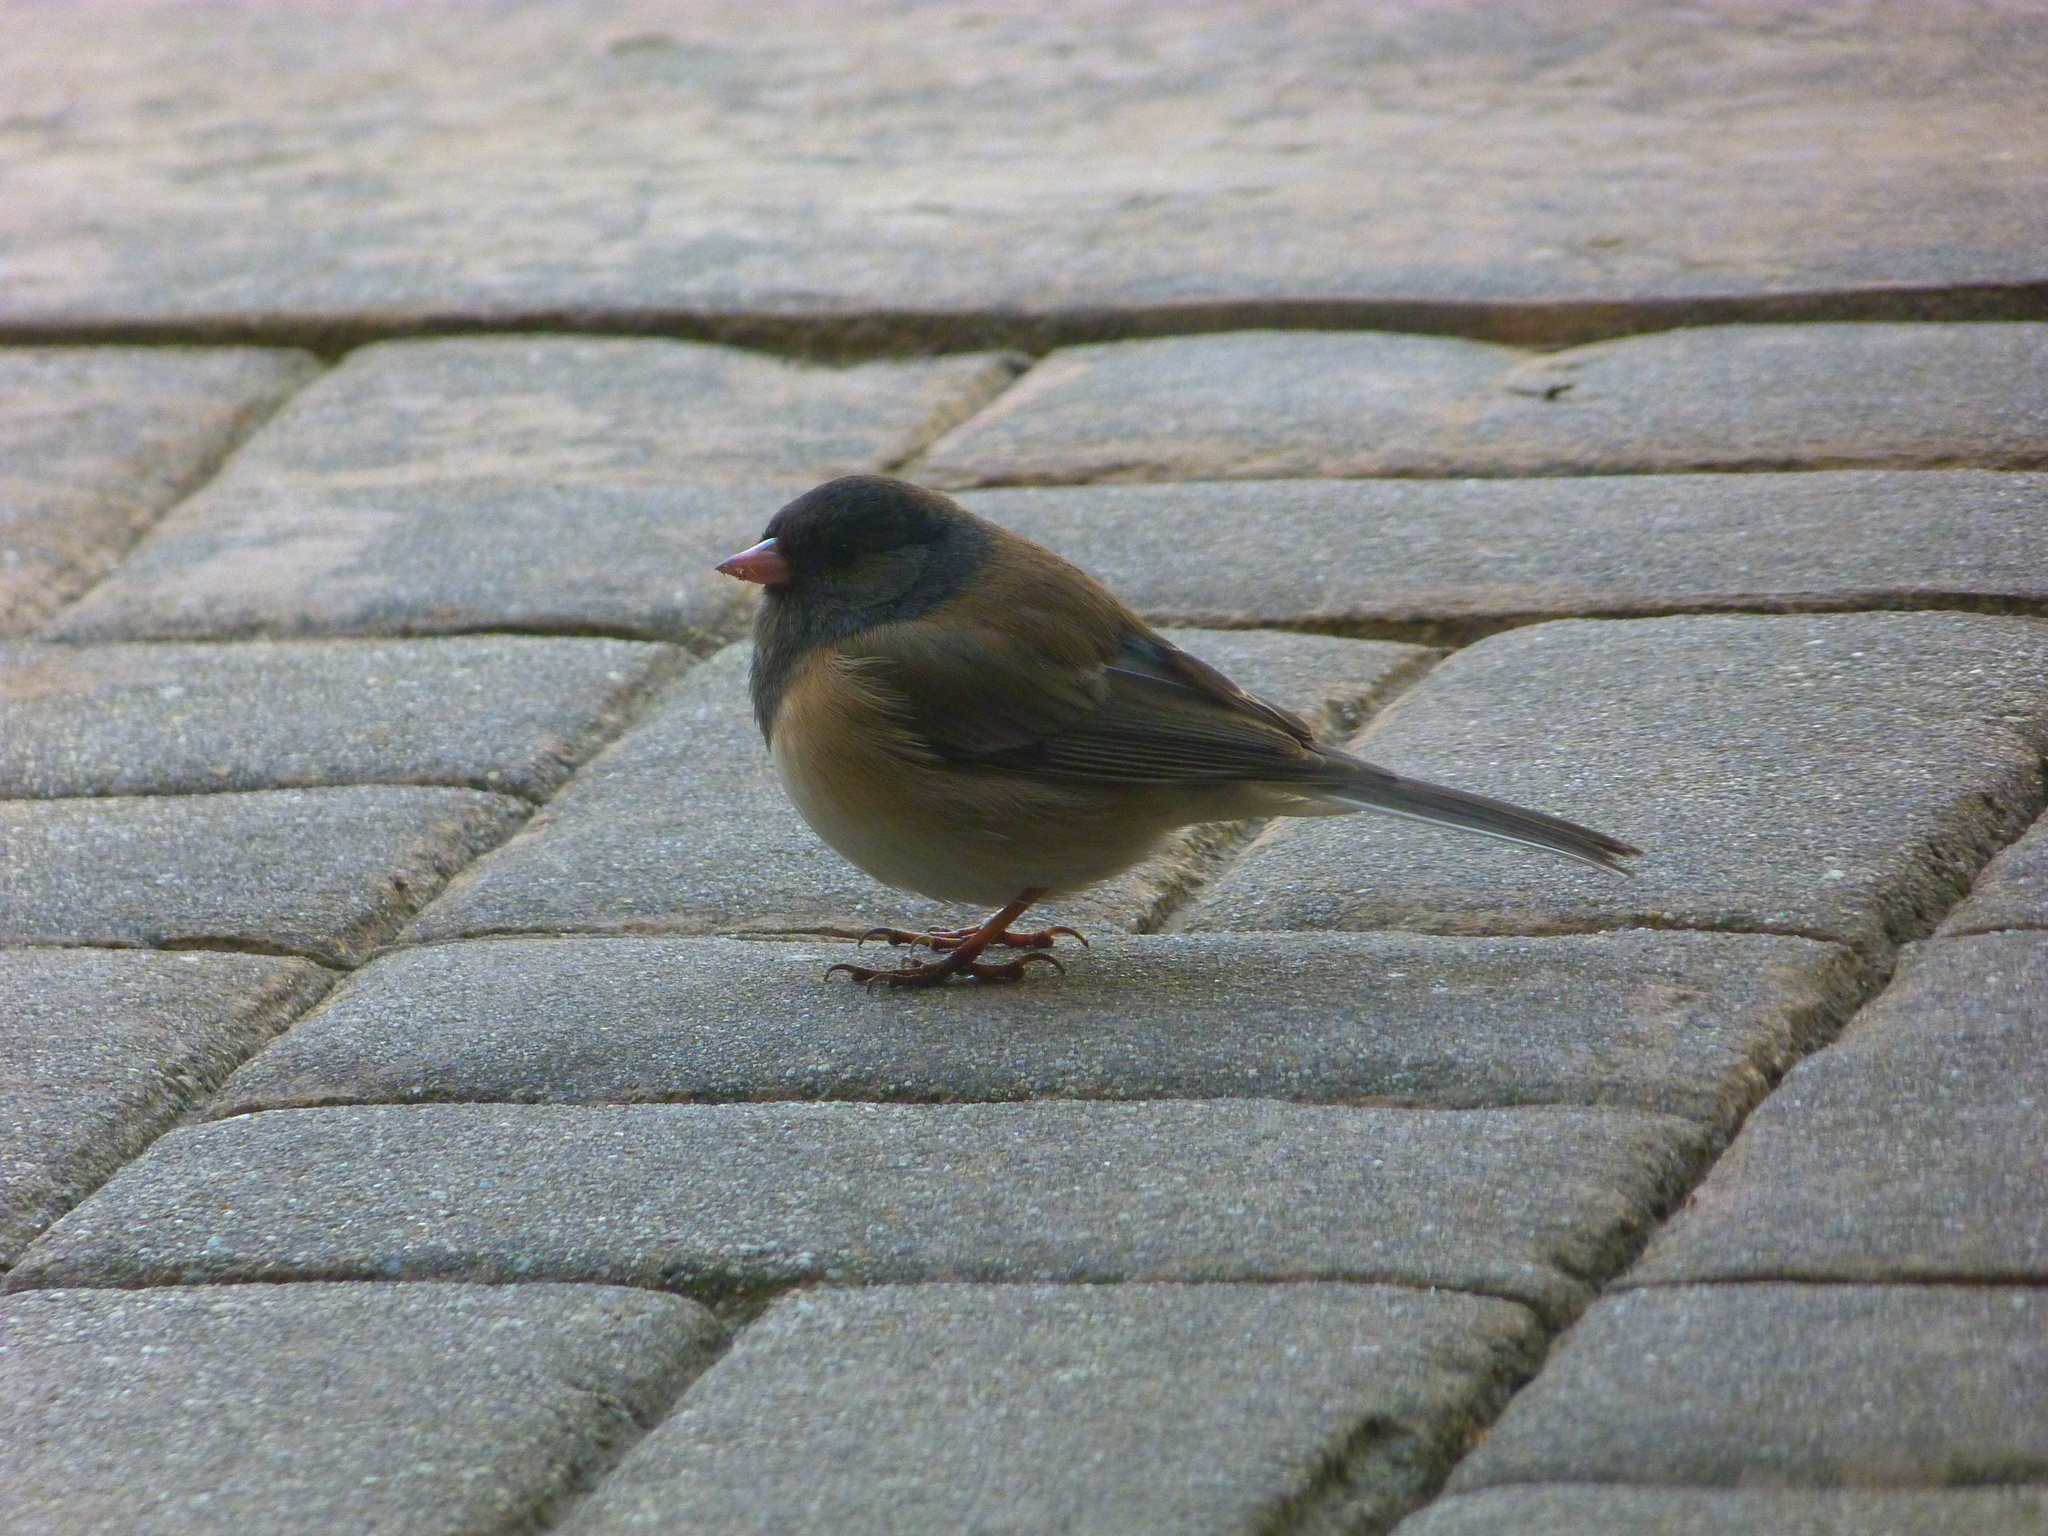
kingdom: Animalia
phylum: Chordata
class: Aves
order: Passeriformes
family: Passerellidae
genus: Junco
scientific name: Junco hyemalis
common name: Dark-eyed junco
